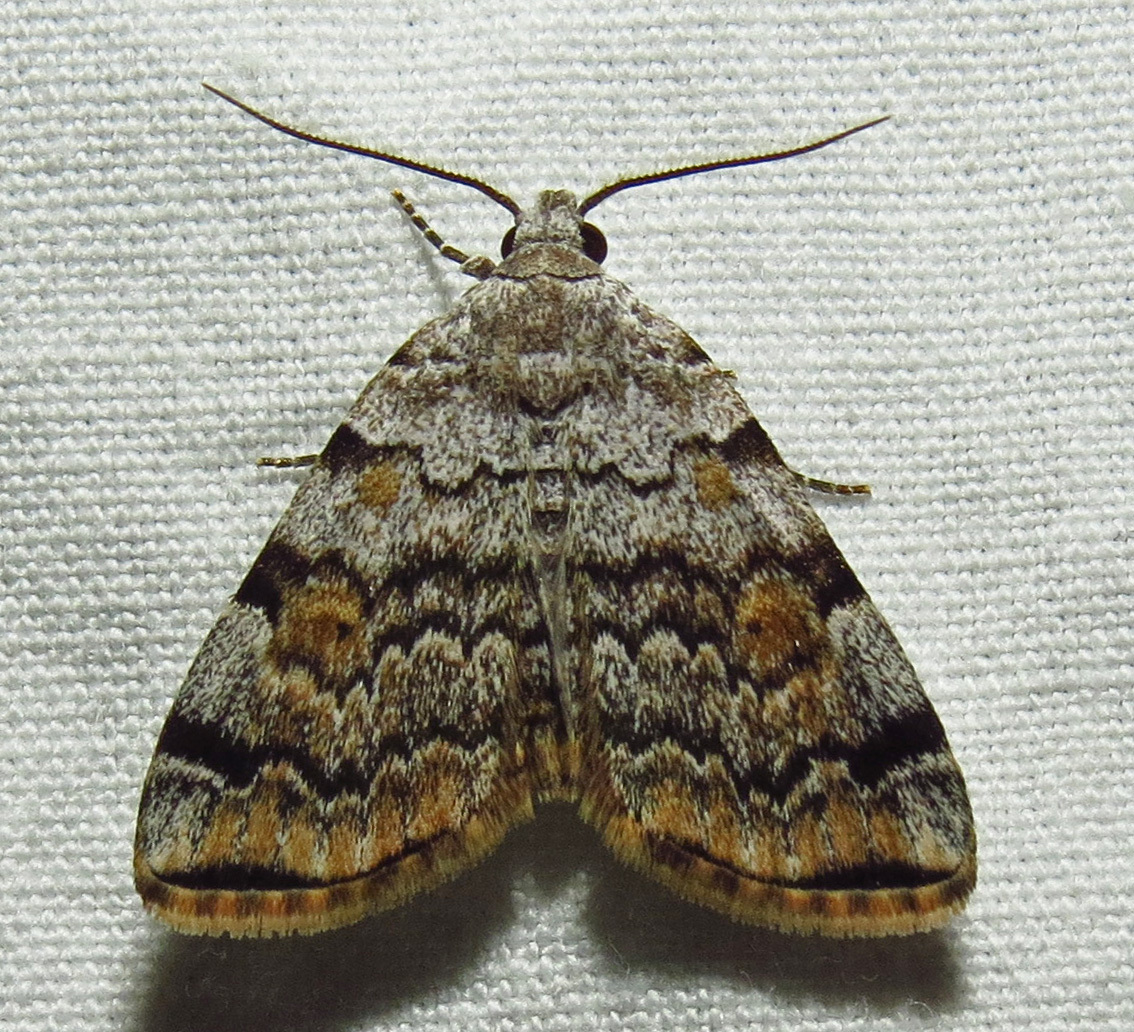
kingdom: Animalia
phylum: Arthropoda
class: Insecta
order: Lepidoptera
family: Erebidae
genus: Idia
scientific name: Idia americalis
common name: American idia moth
